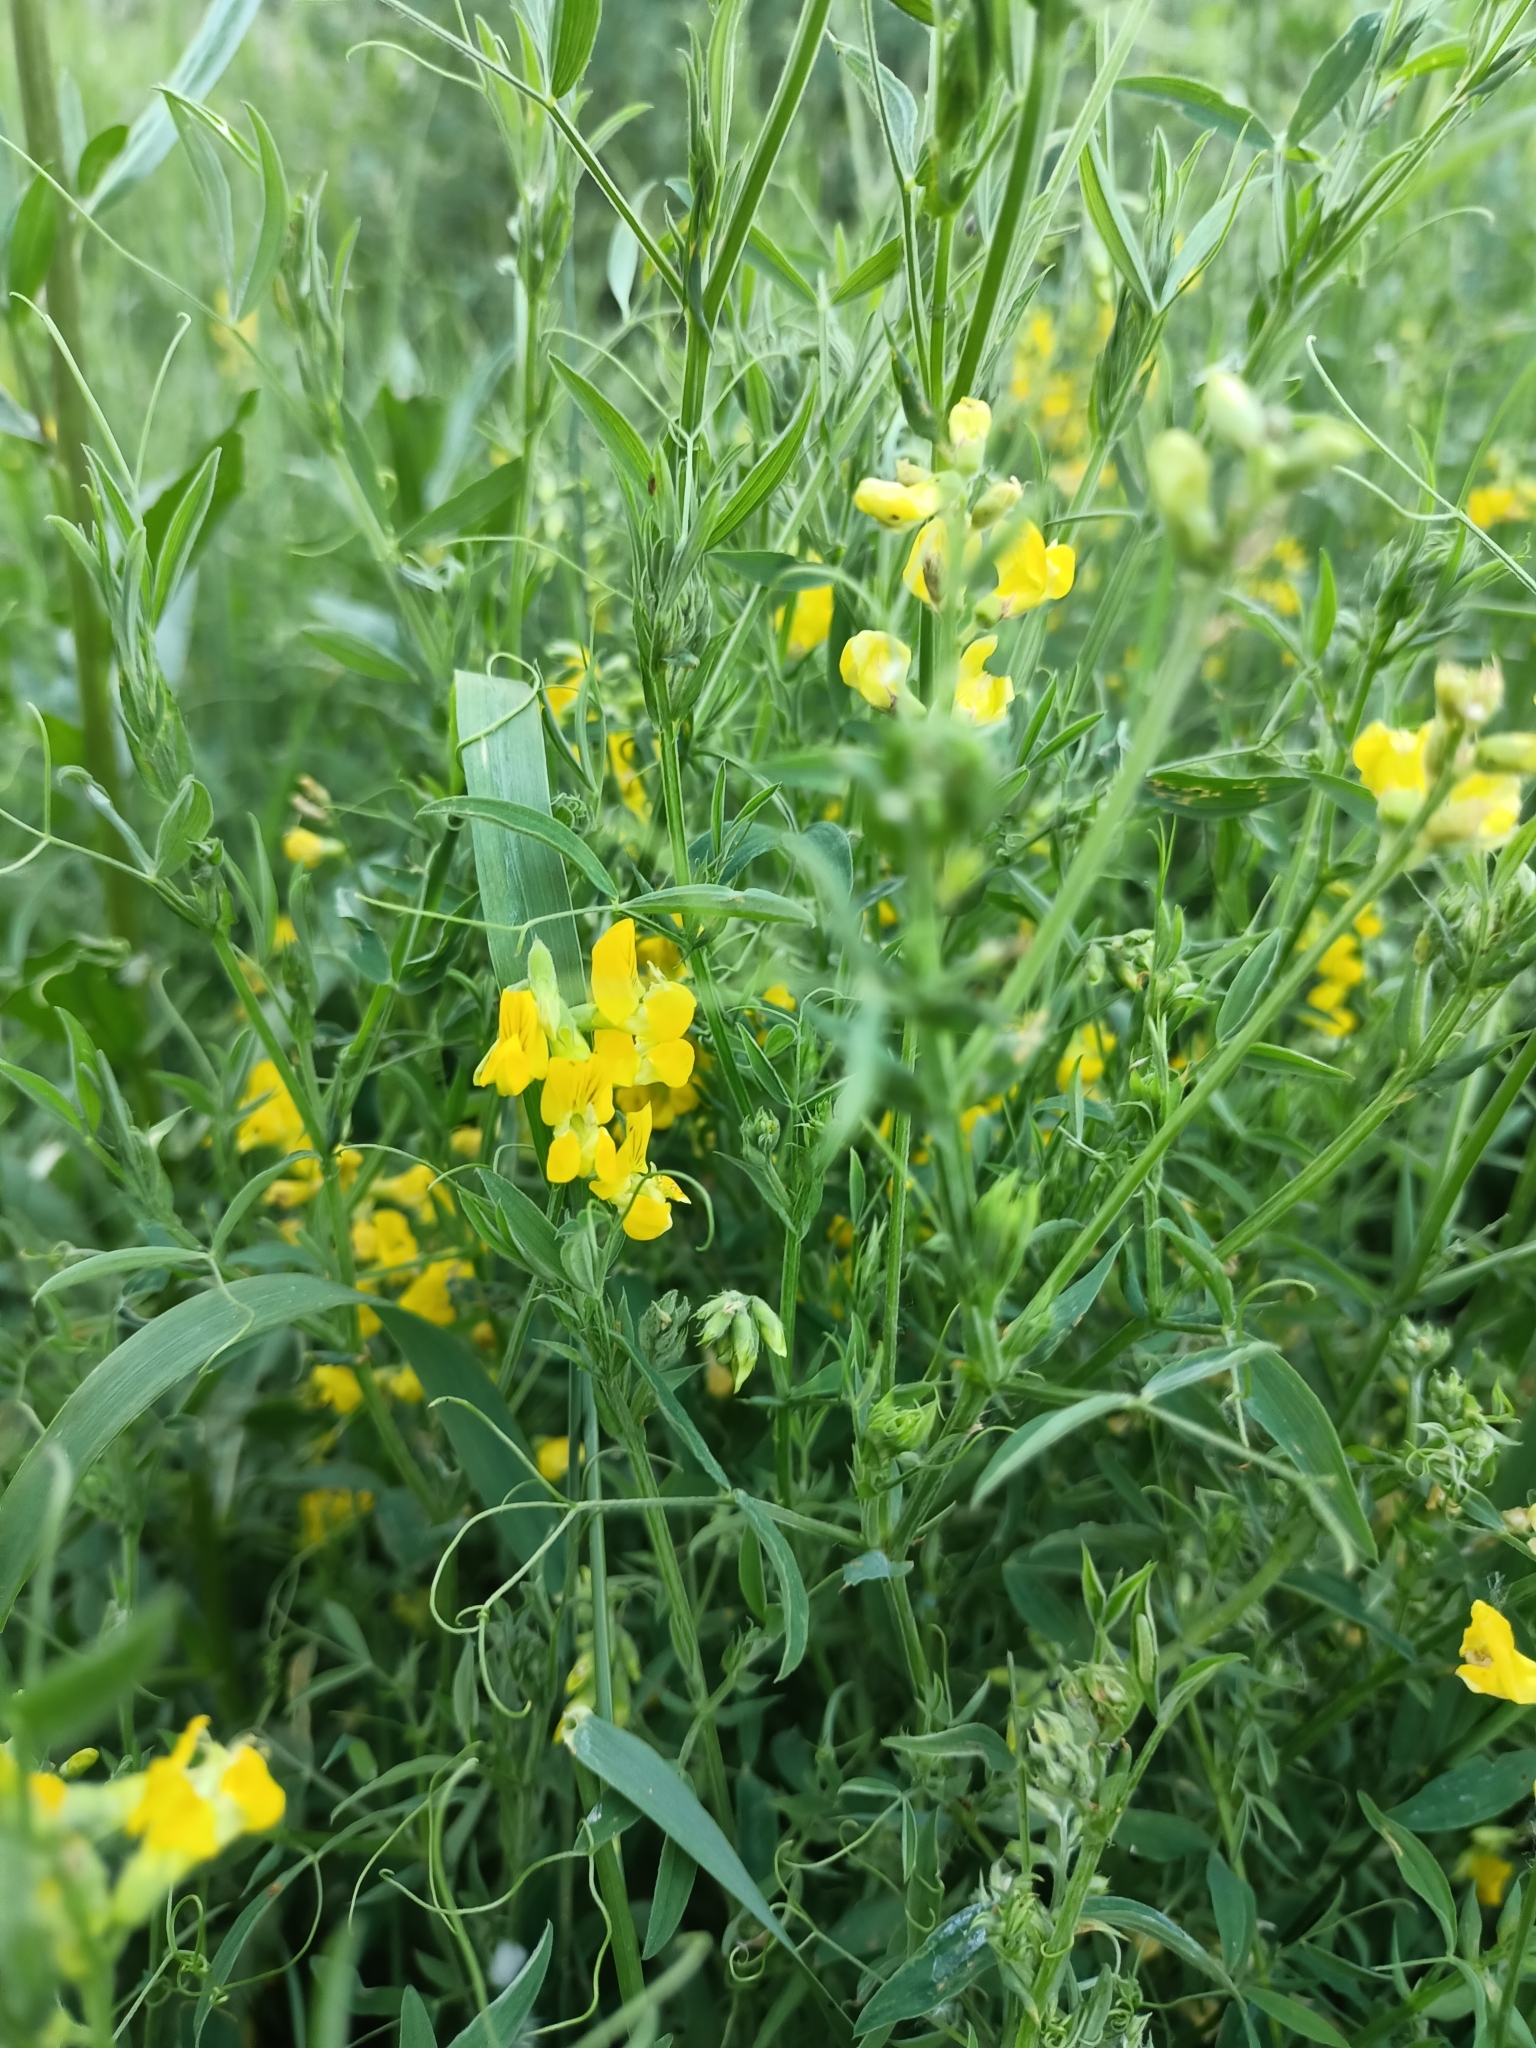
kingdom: Plantae
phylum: Tracheophyta
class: Magnoliopsida
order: Fabales
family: Fabaceae
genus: Lathyrus
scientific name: Lathyrus pratensis
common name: Meadow vetchling
